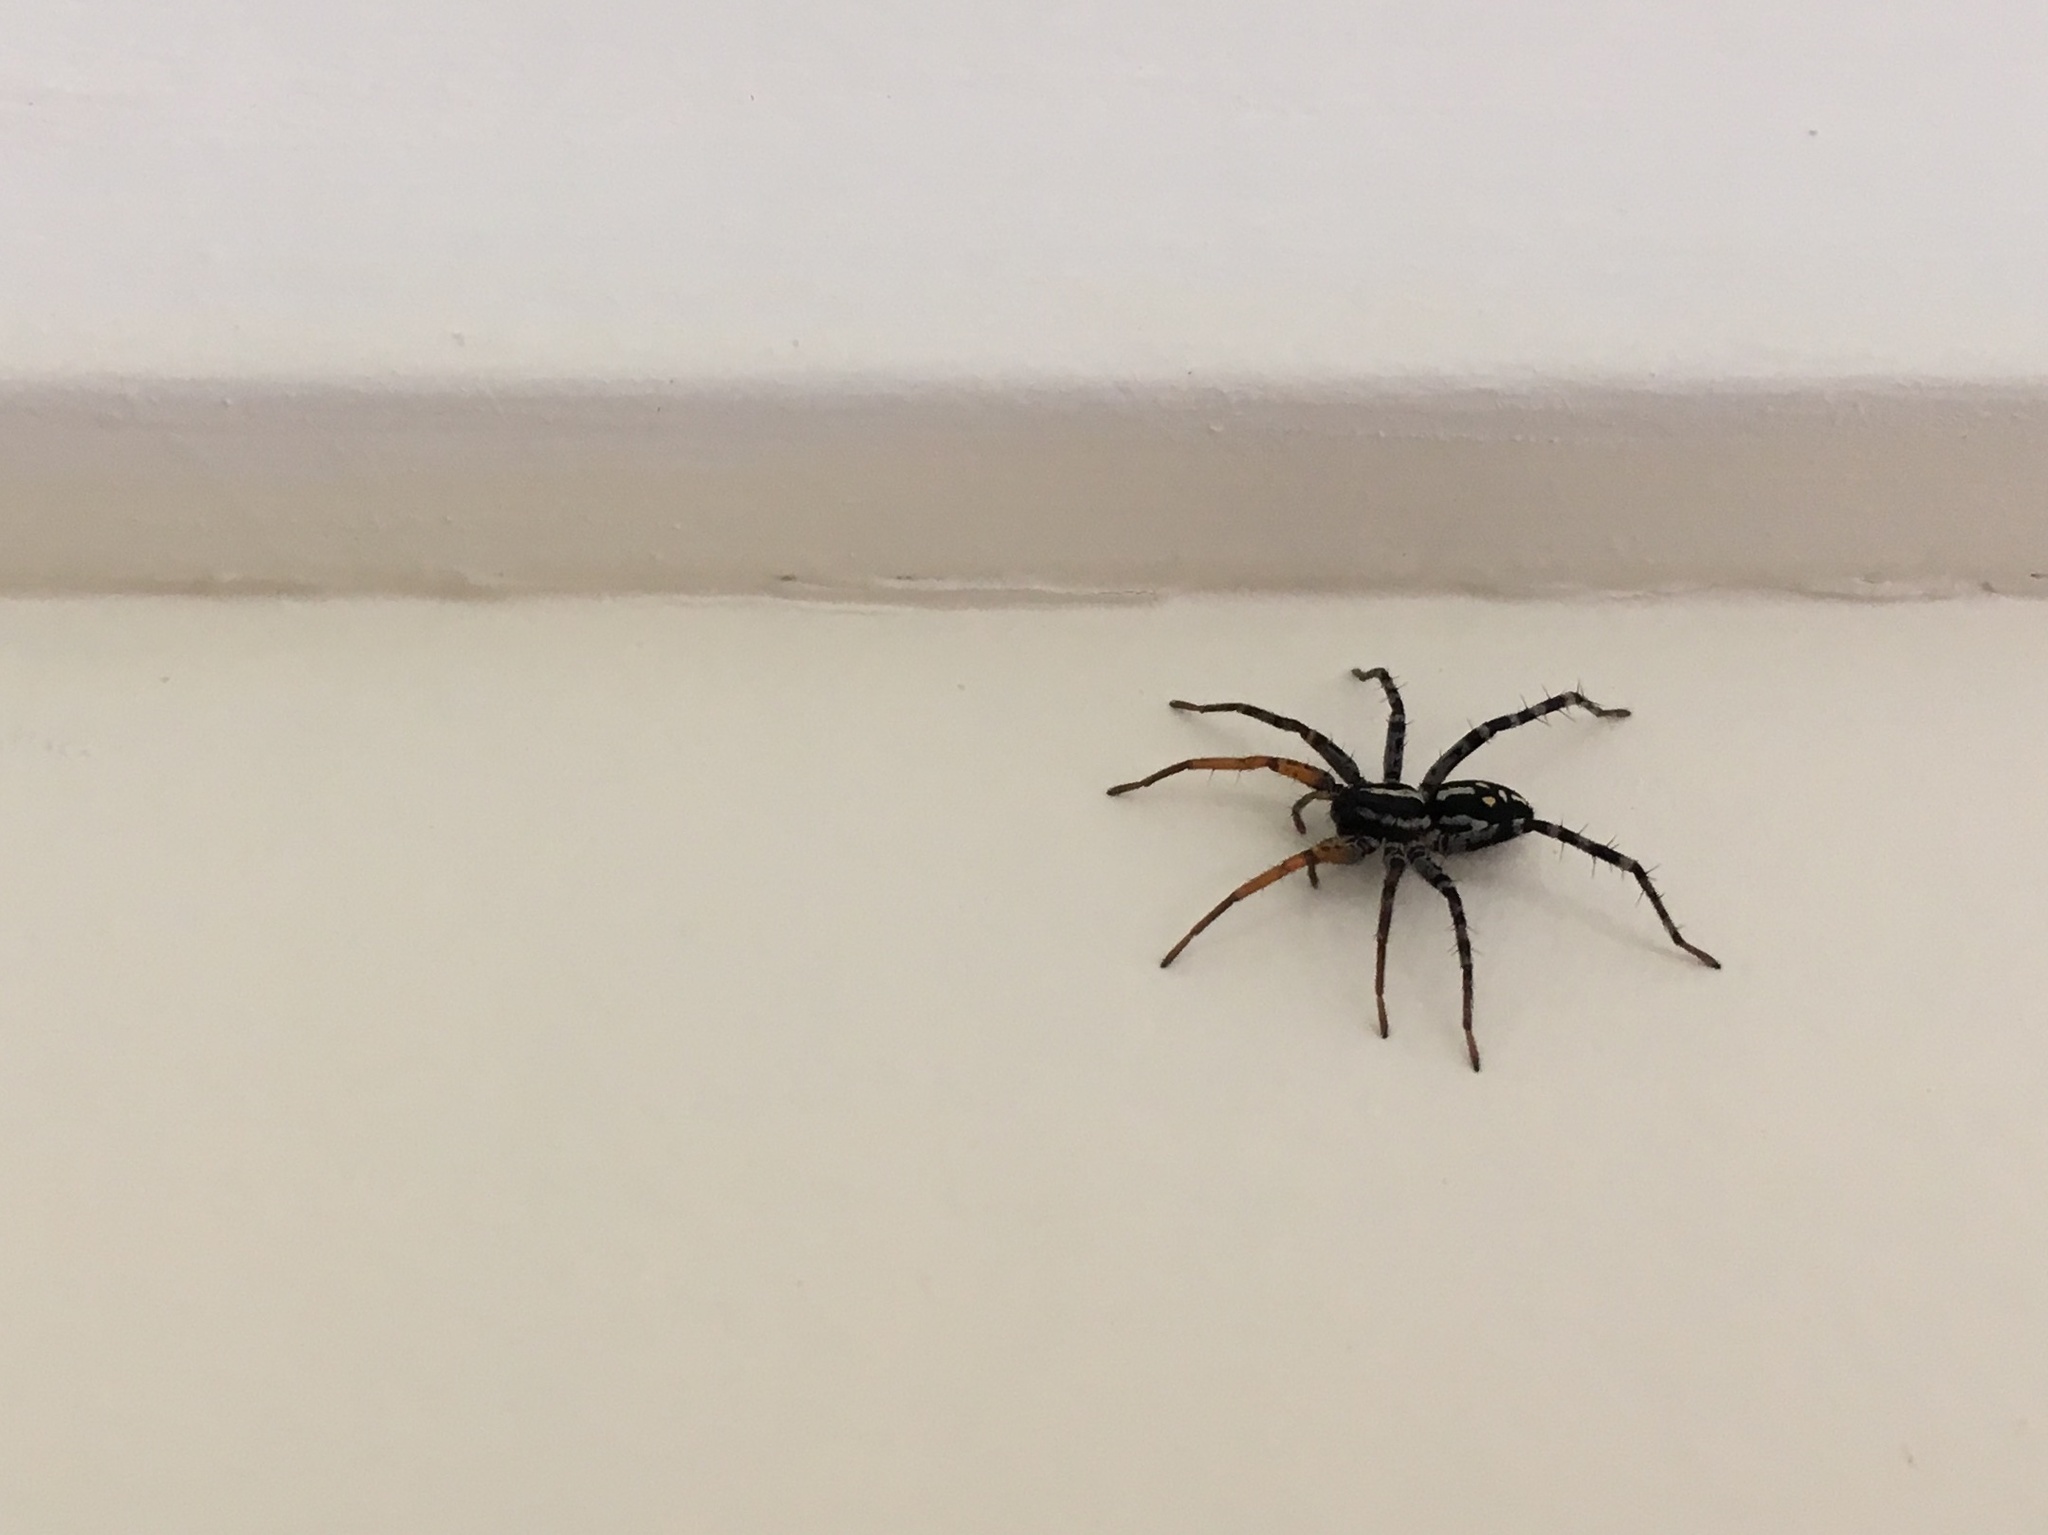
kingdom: Animalia
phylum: Arthropoda
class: Arachnida
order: Araneae
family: Corinnidae
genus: Nyssus
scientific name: Nyssus coloripes
